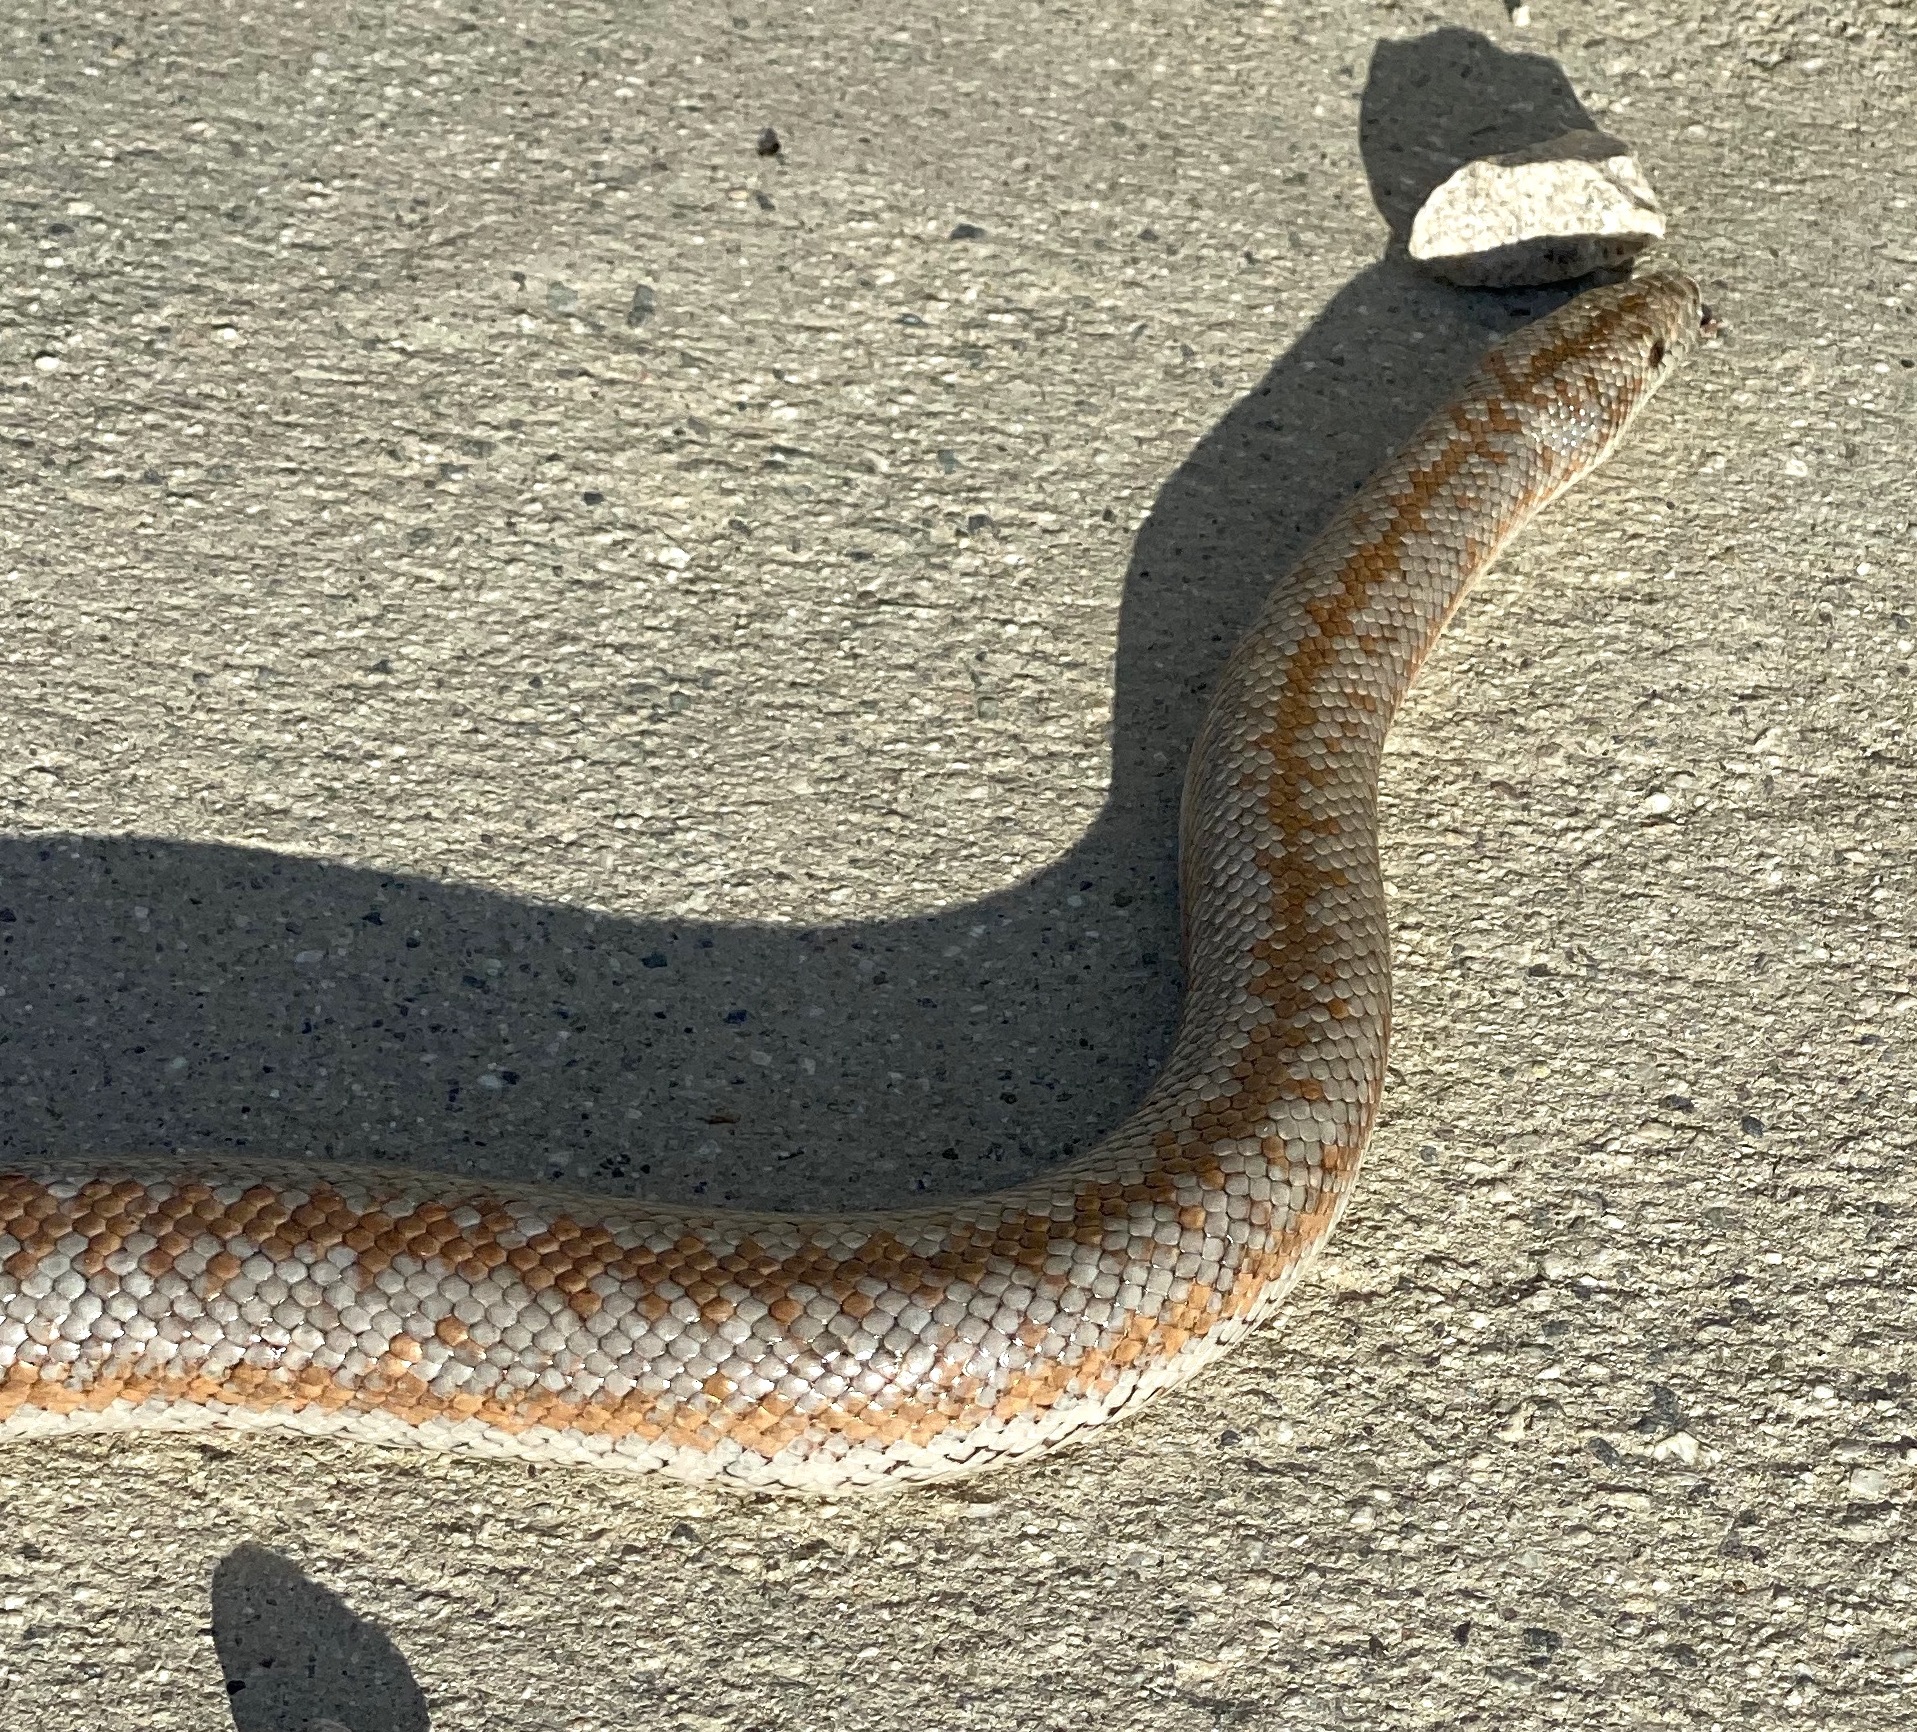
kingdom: Animalia
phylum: Chordata
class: Squamata
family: Boidae
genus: Lichanura
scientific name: Lichanura orcutti
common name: Northern three-lined boa
